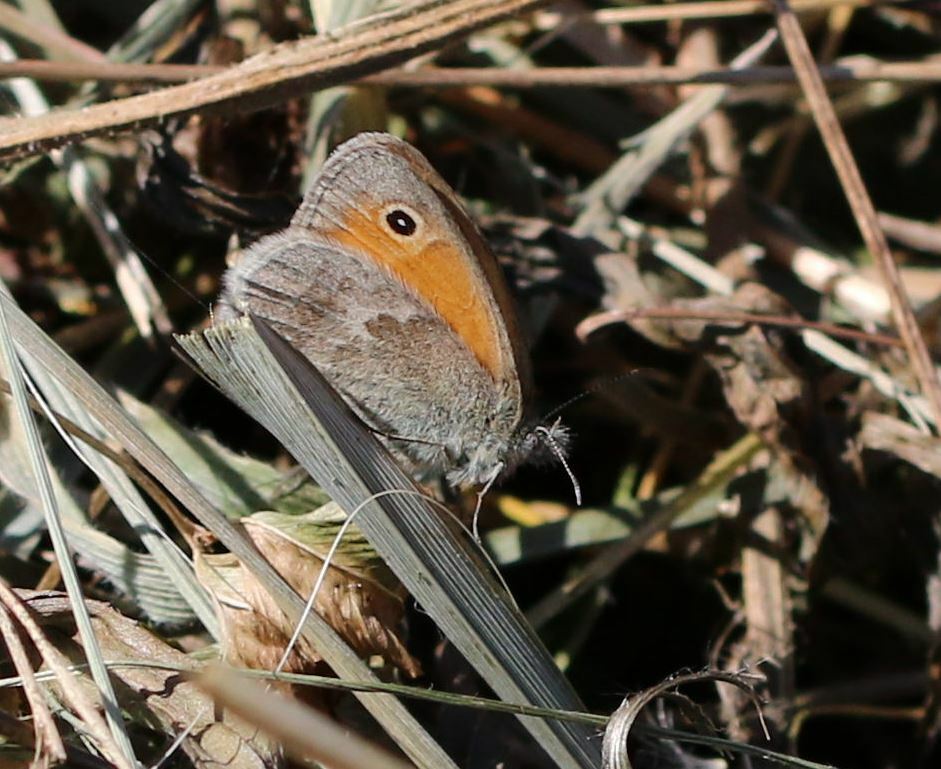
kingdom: Animalia
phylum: Arthropoda
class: Insecta
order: Lepidoptera
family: Nymphalidae
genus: Coenonympha
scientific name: Coenonympha pamphilus
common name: Small heath
